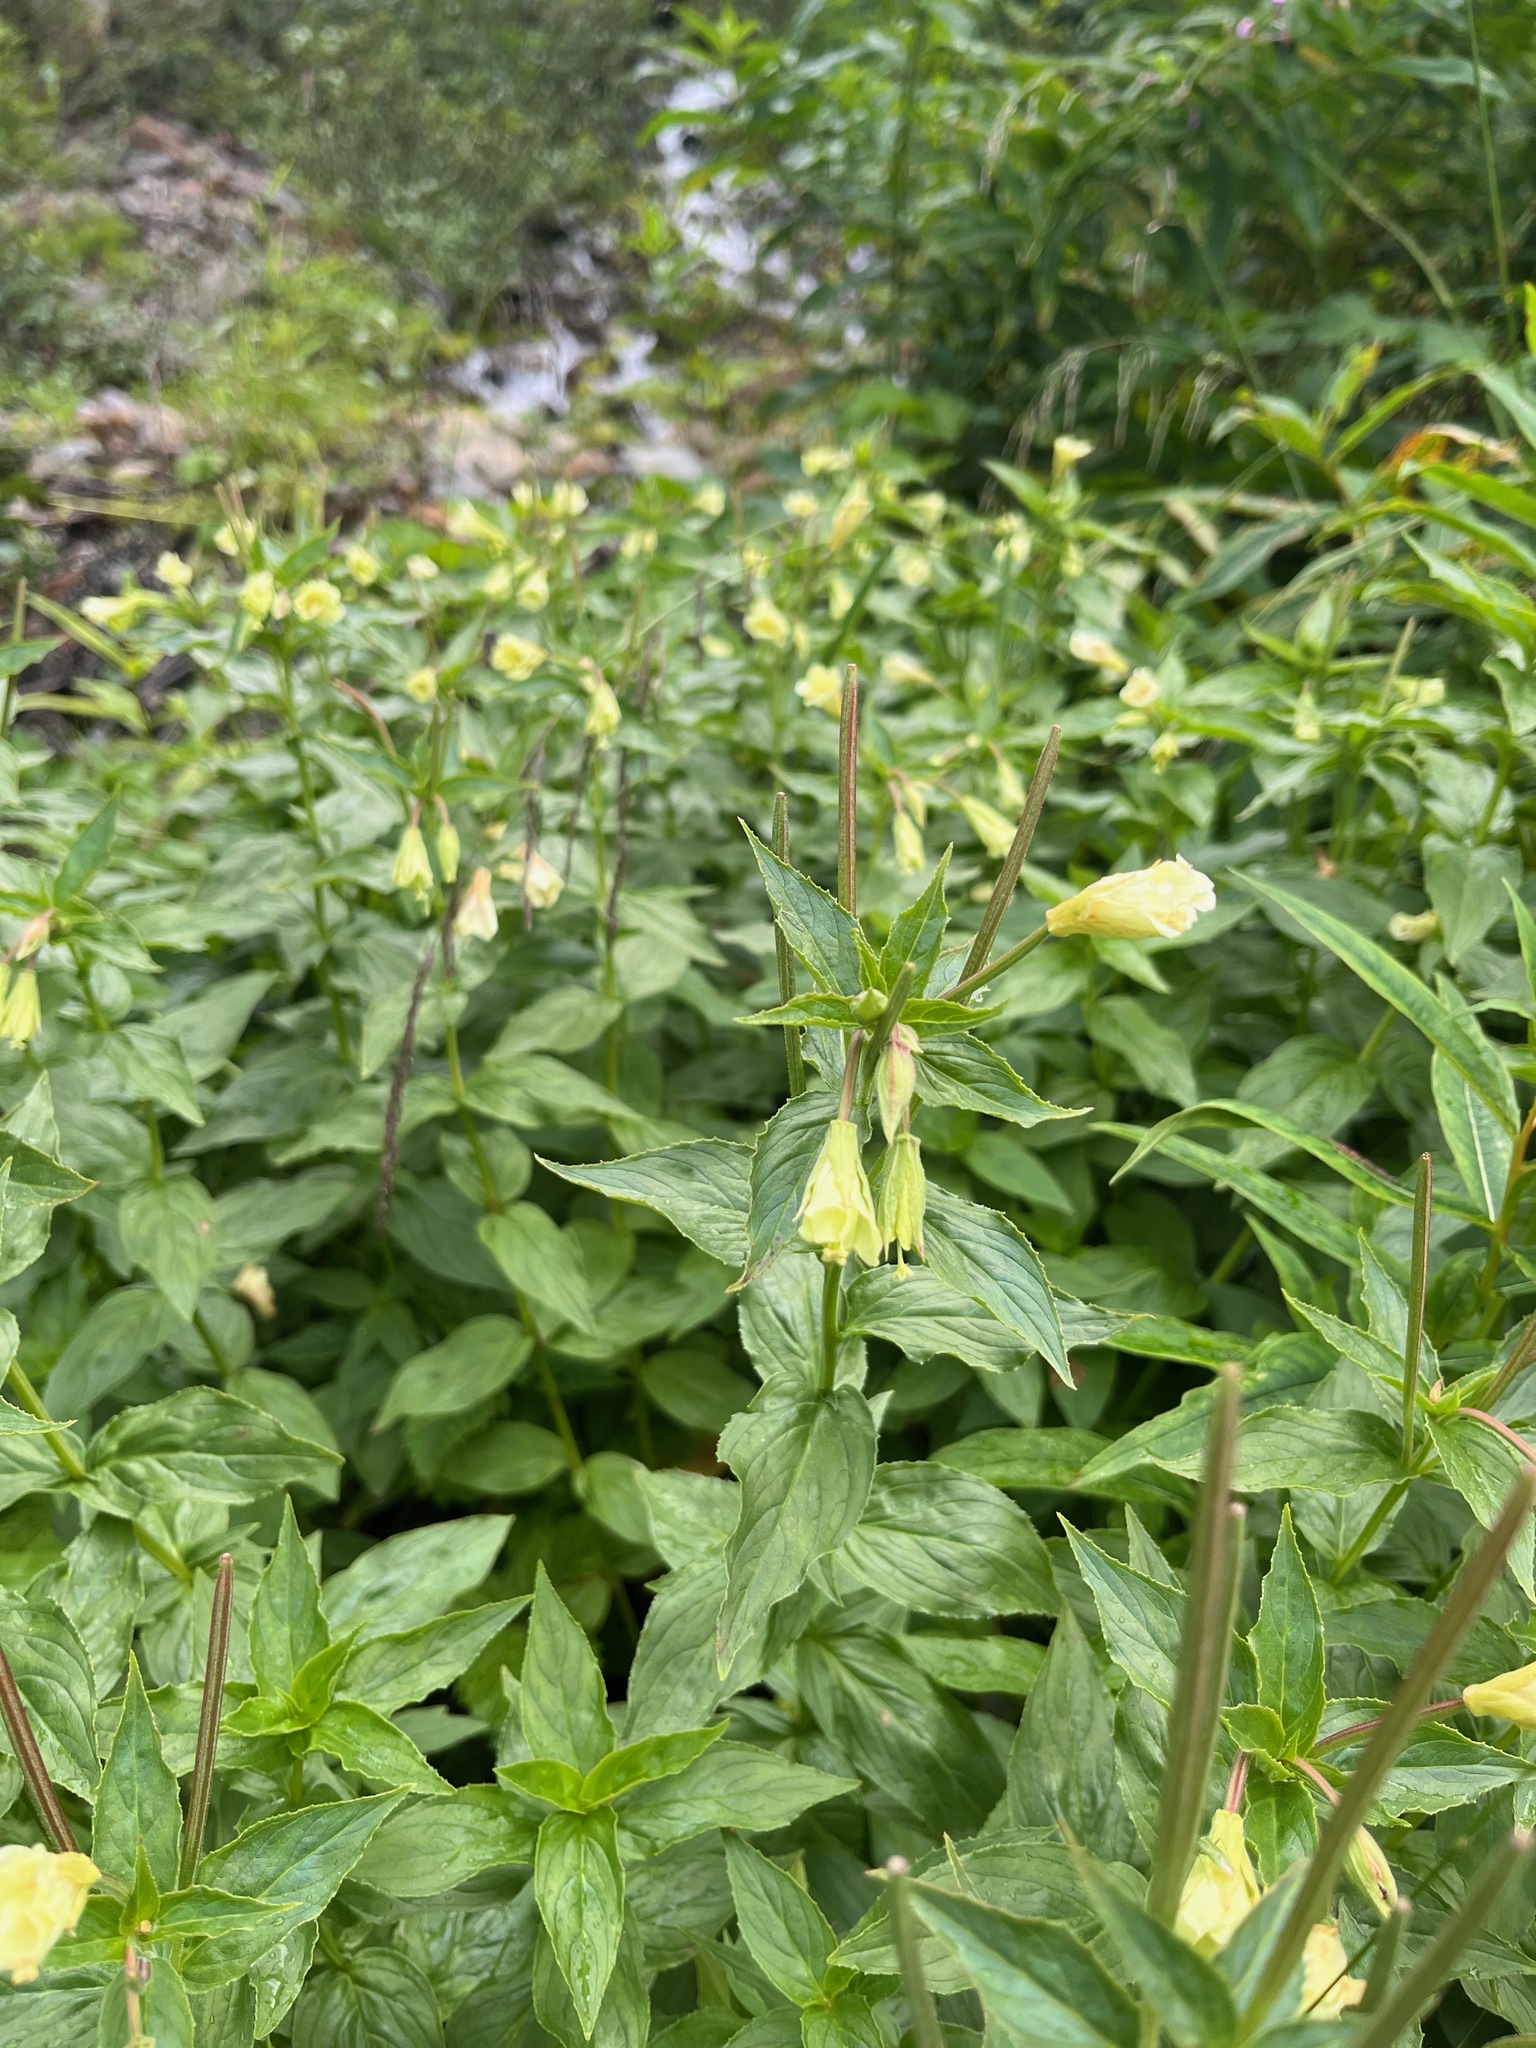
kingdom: Plantae
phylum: Tracheophyta
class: Magnoliopsida
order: Myrtales
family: Onagraceae
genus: Epilobium
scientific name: Epilobium luteum
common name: Yellow willowherb
